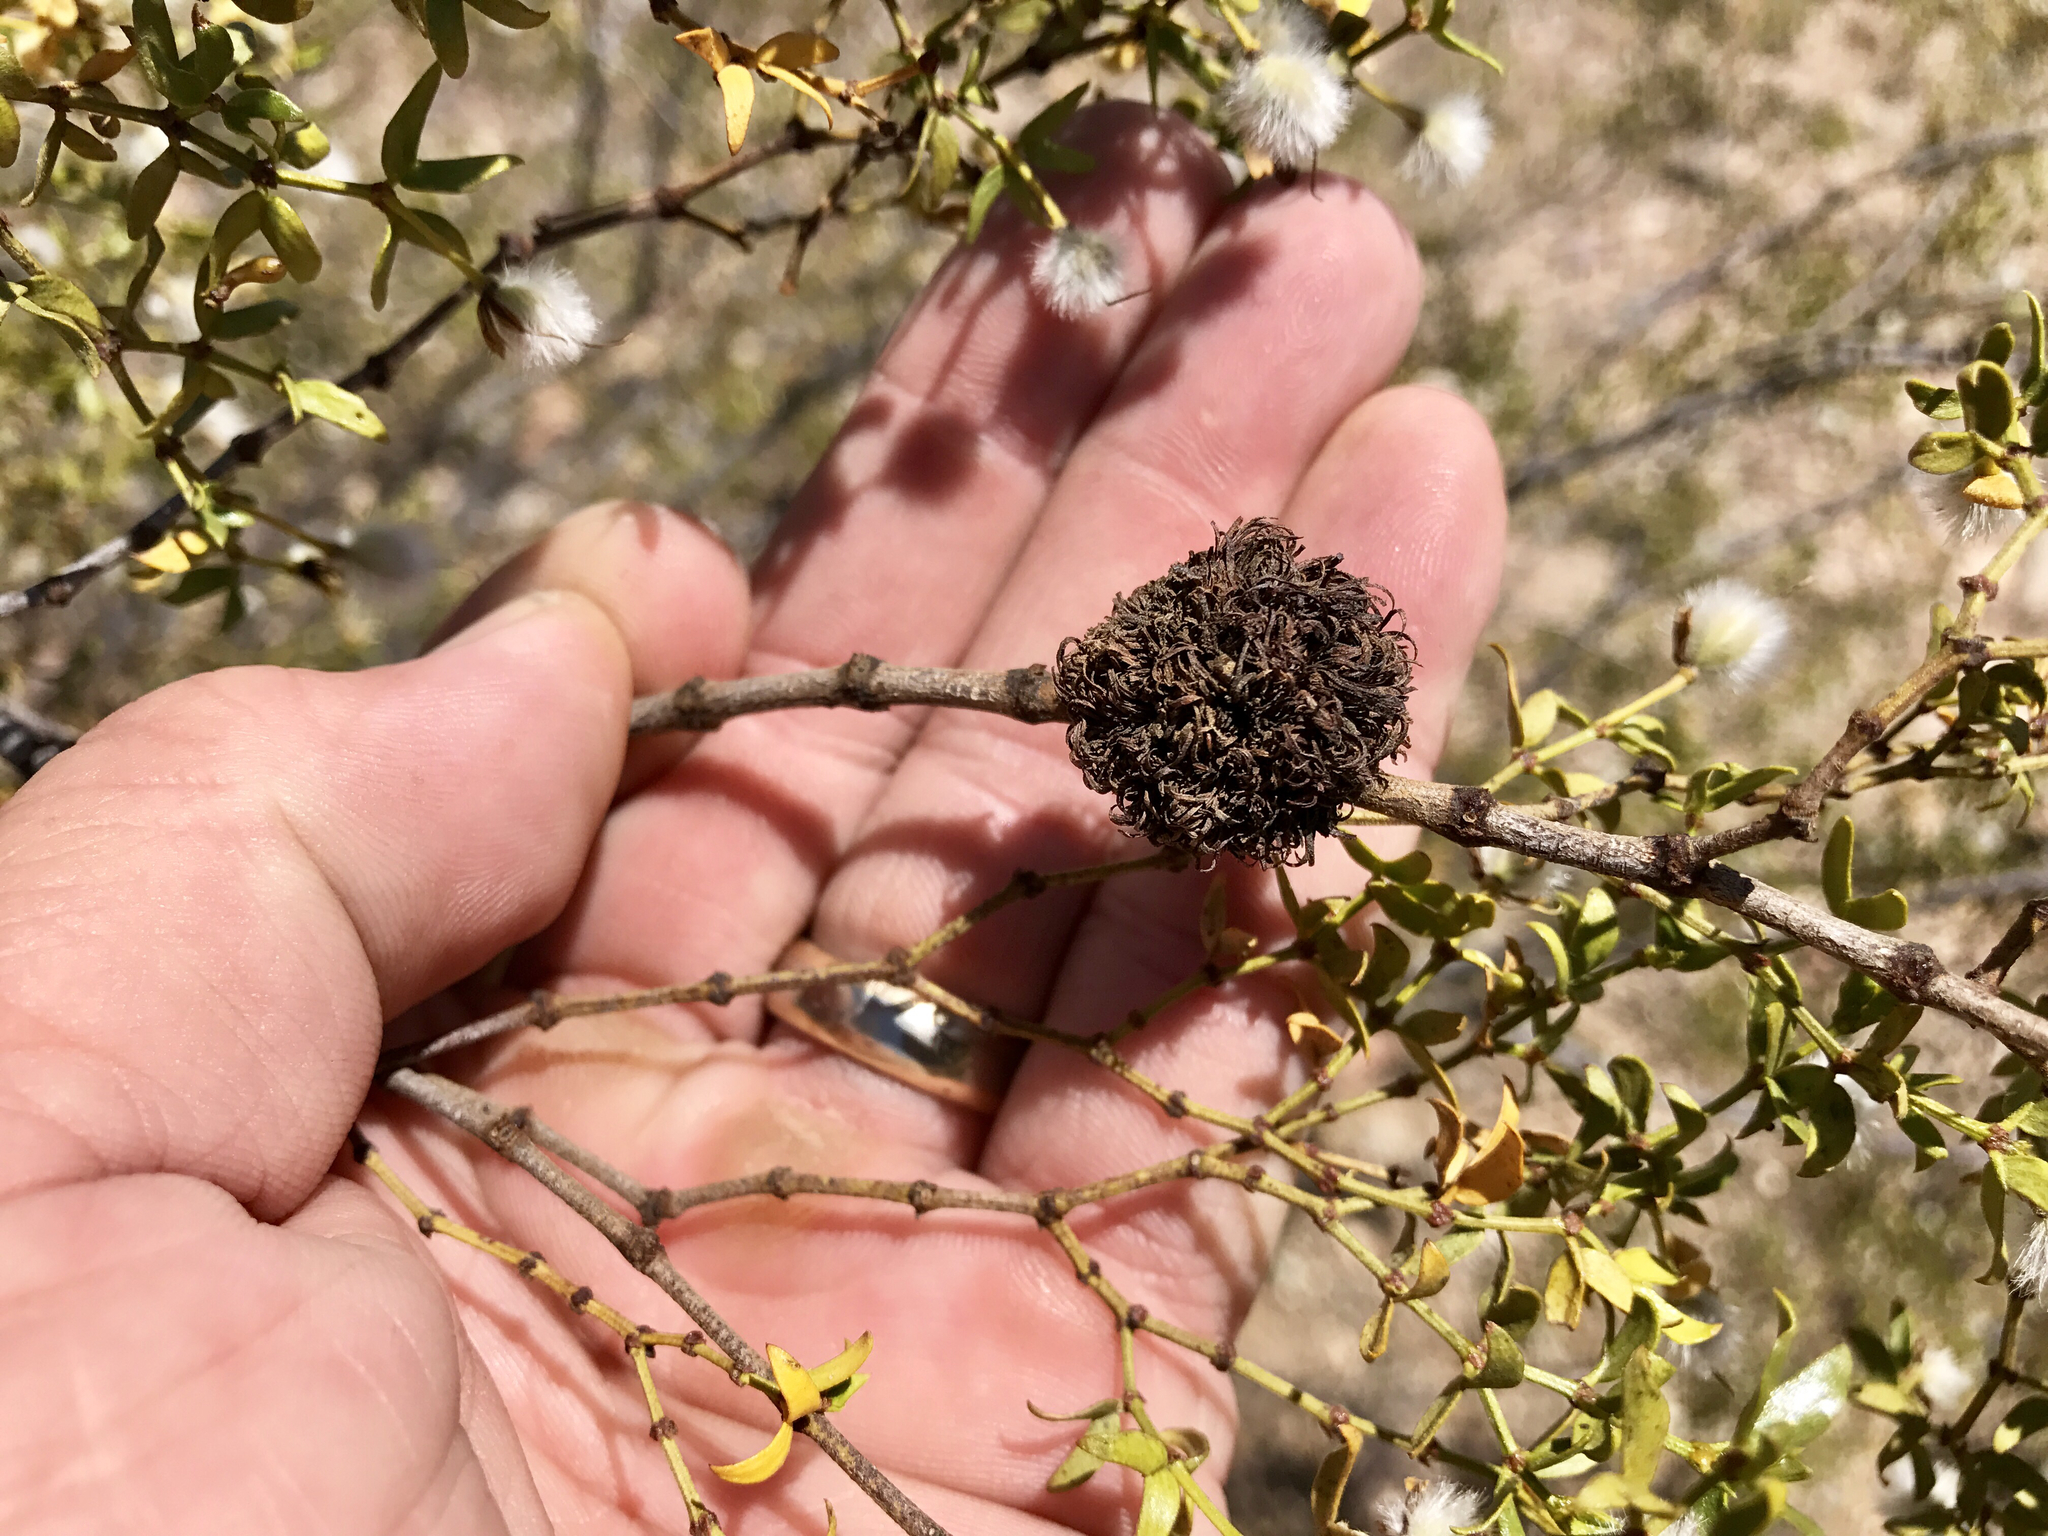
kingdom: Animalia
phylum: Arthropoda
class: Insecta
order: Diptera
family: Cecidomyiidae
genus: Asphondylia
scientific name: Asphondylia auripila
